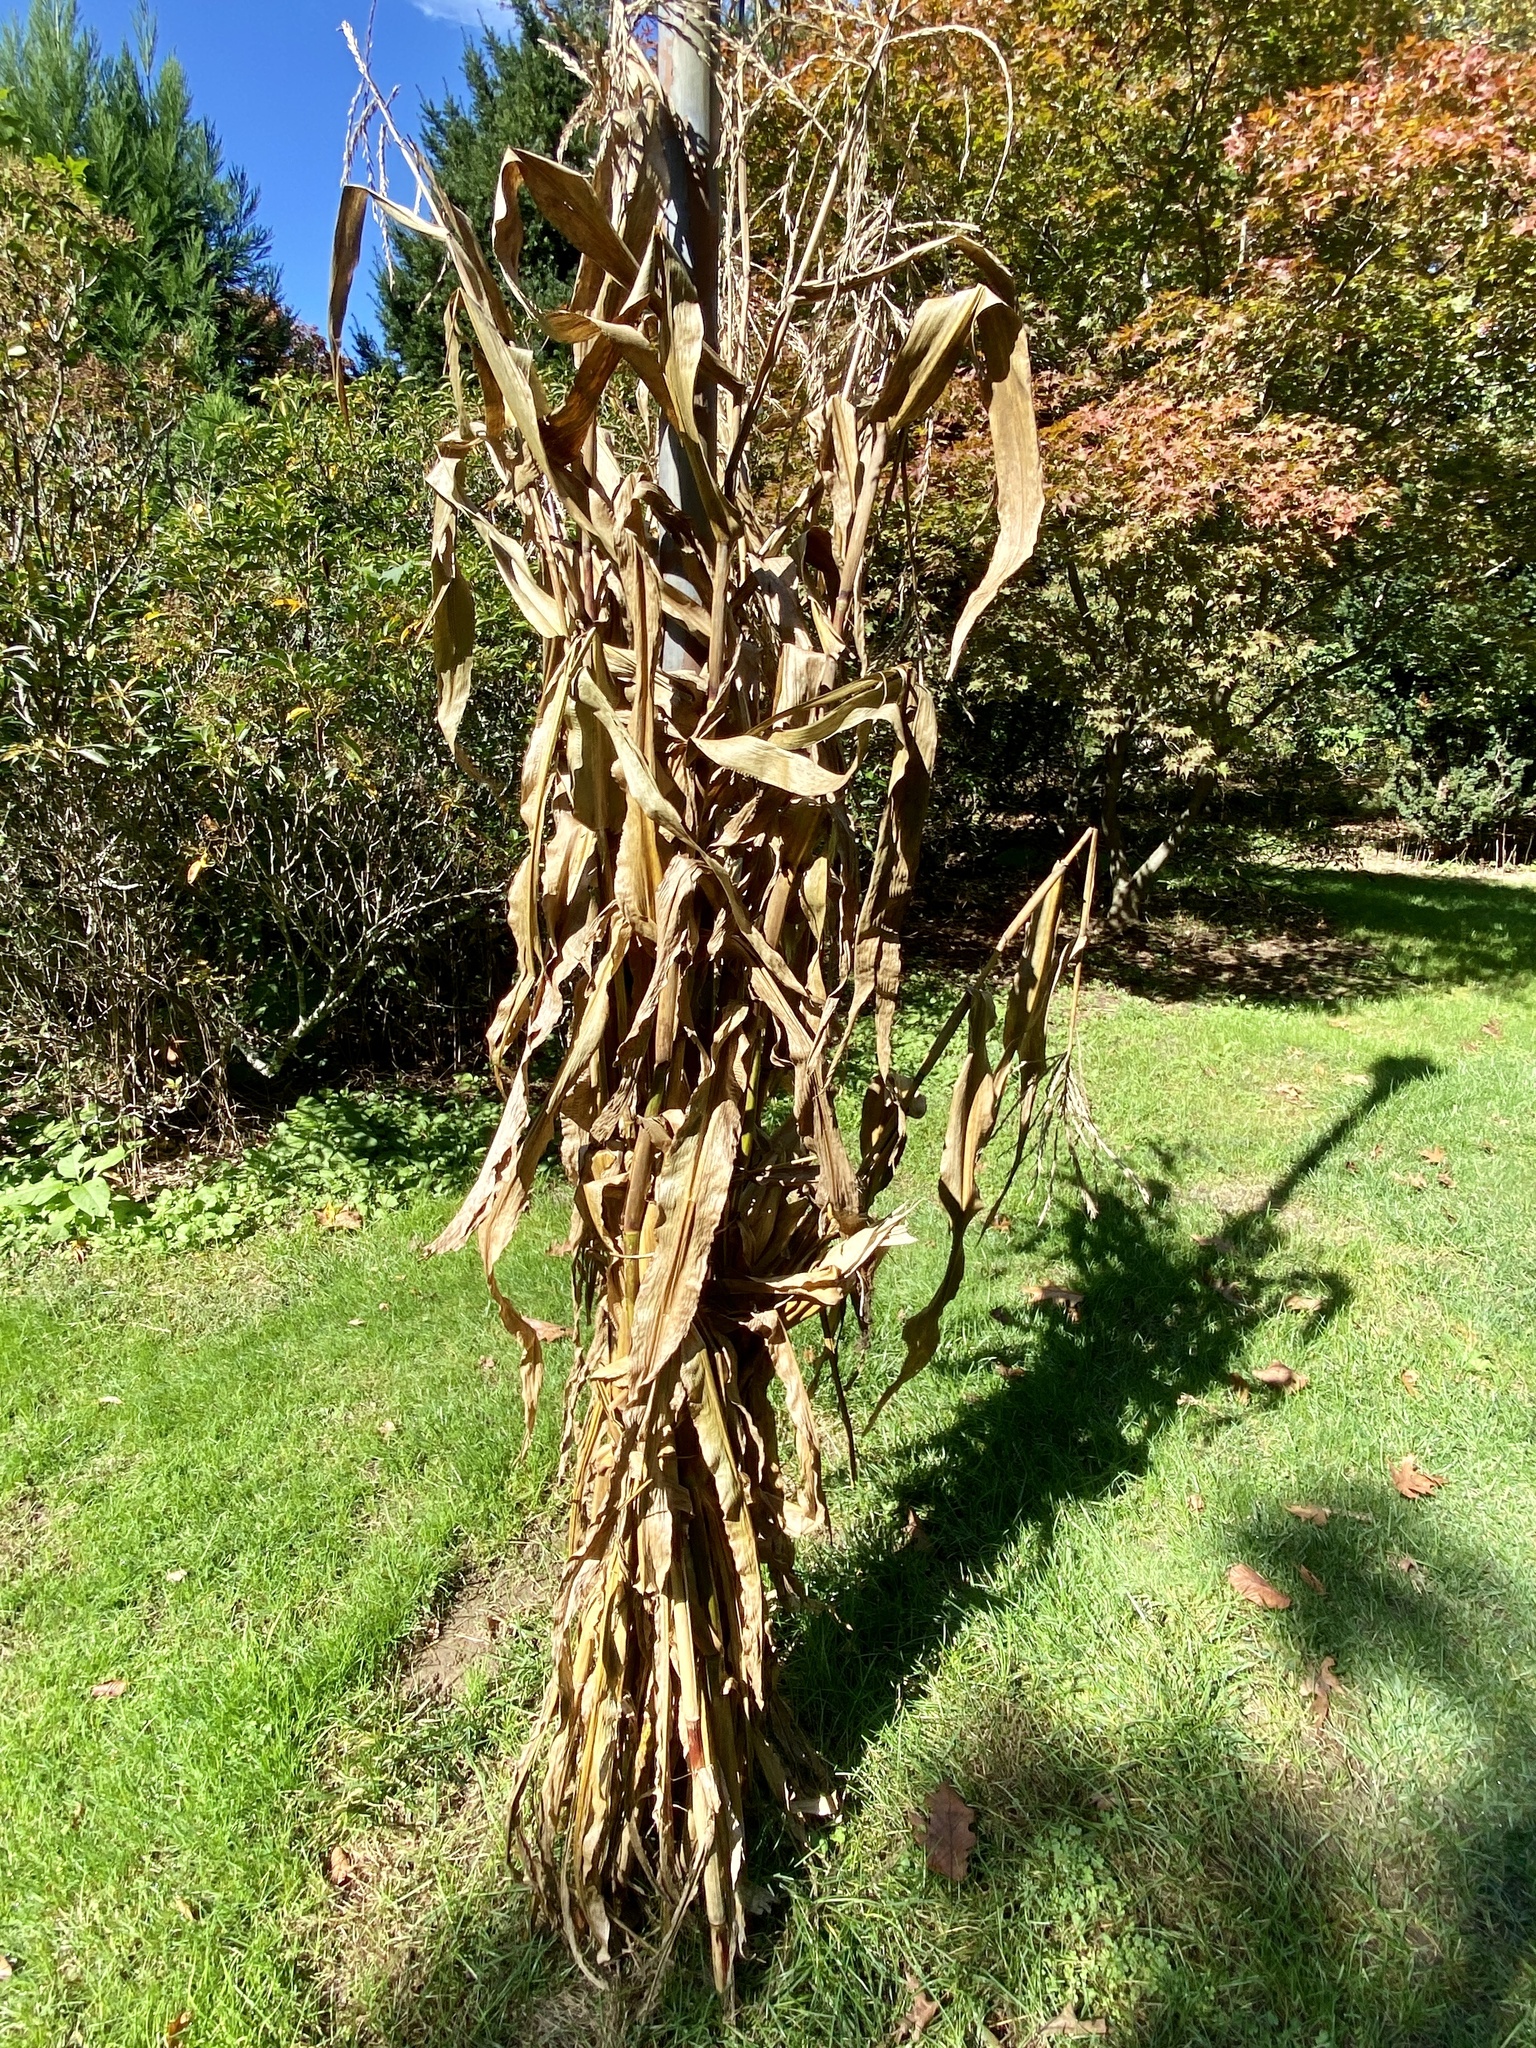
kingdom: Plantae
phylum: Tracheophyta
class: Liliopsida
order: Poales
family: Poaceae
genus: Zea
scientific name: Zea mays
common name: Maize
